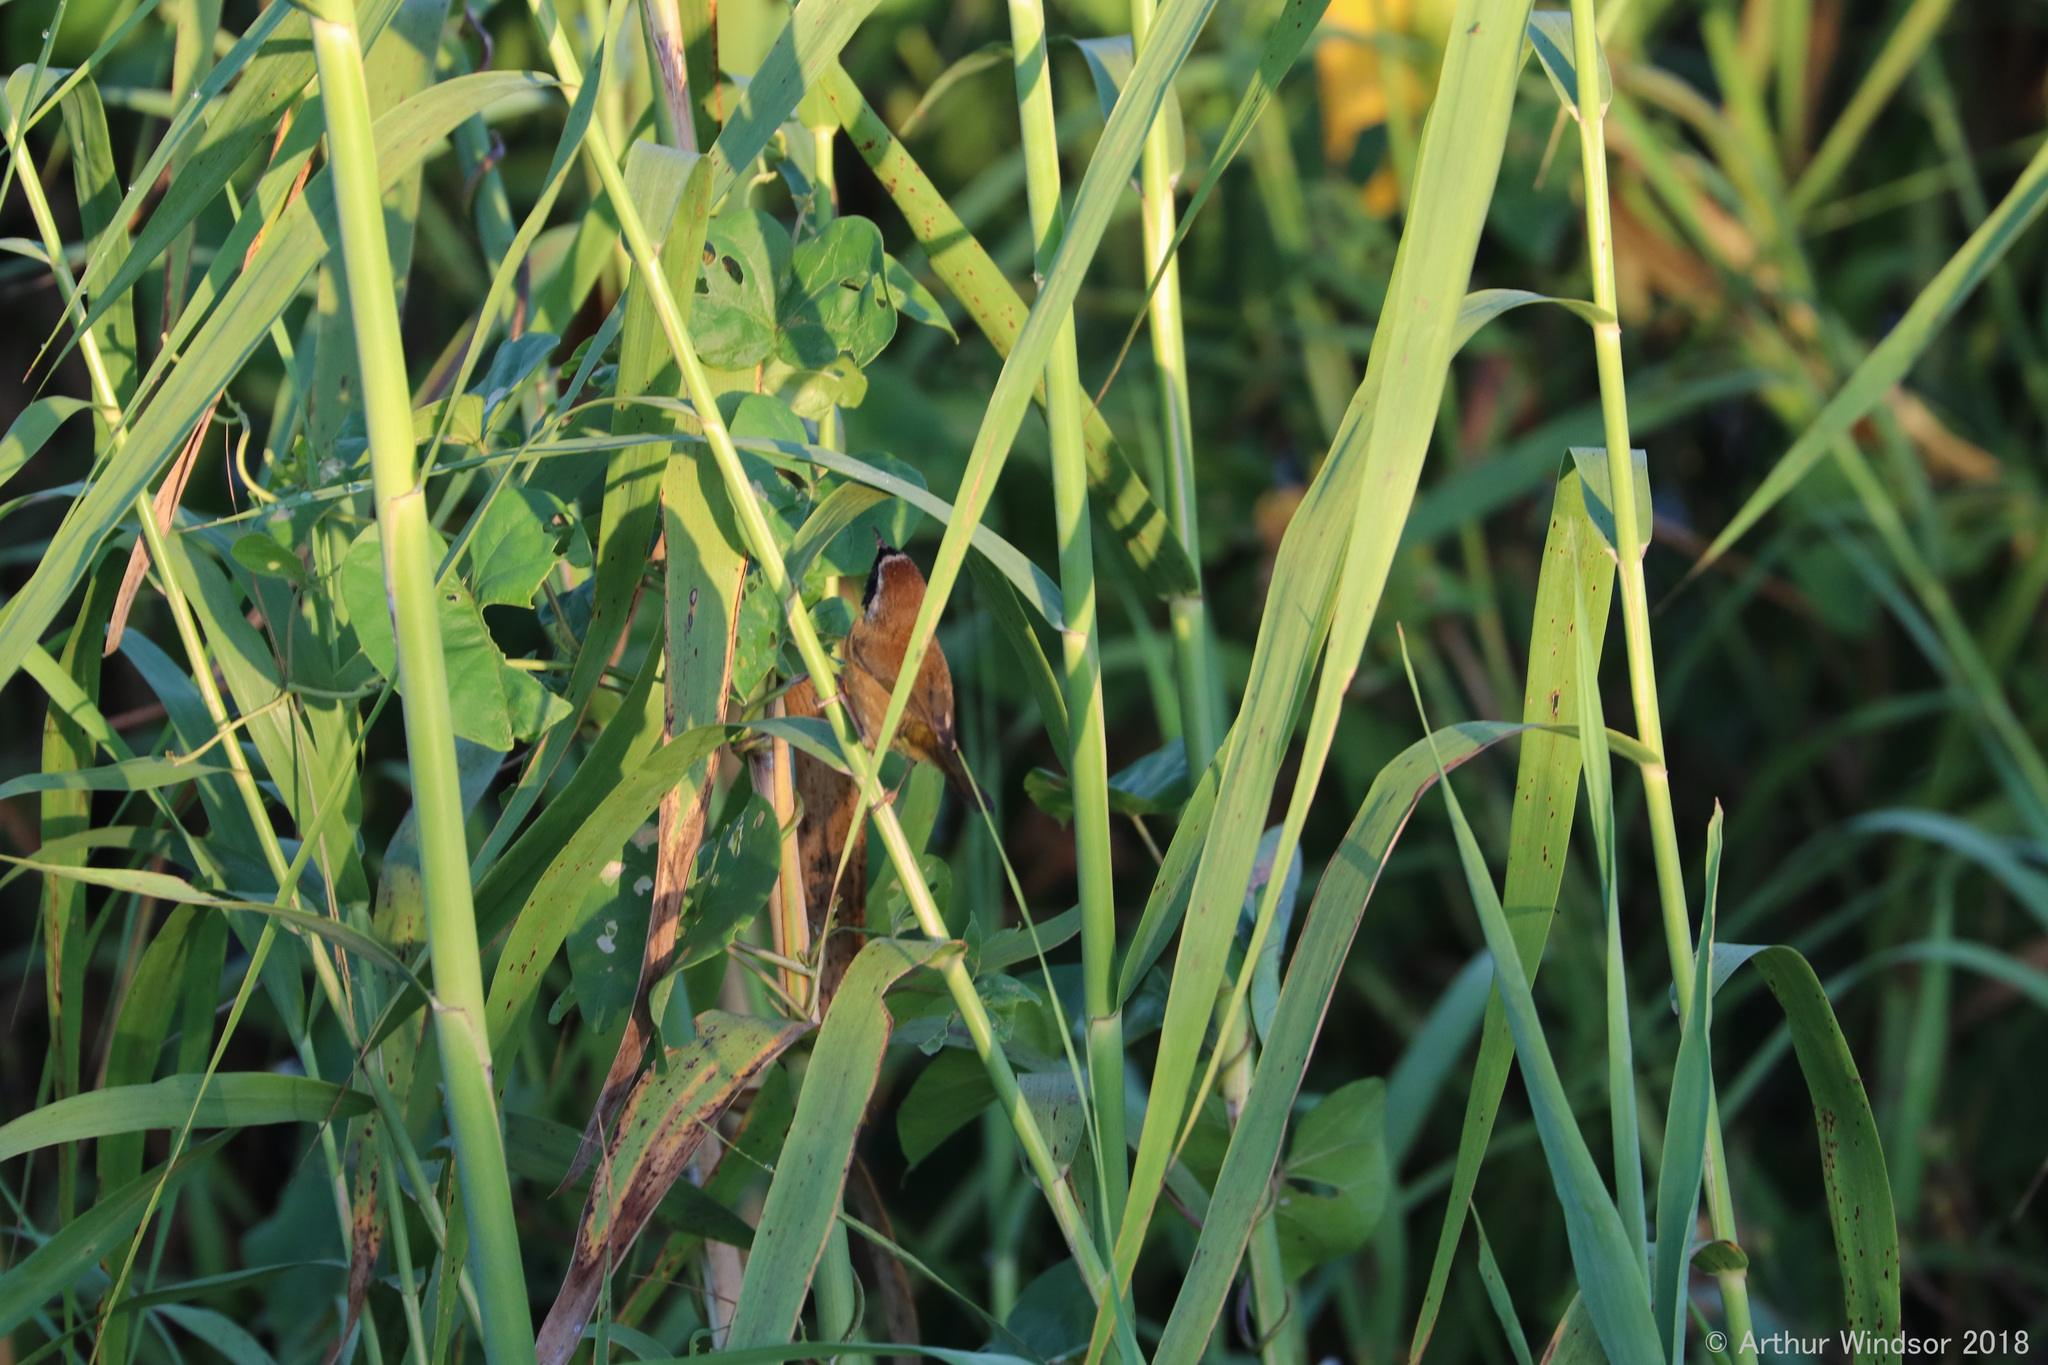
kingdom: Animalia
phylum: Chordata
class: Aves
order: Passeriformes
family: Parulidae
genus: Geothlypis
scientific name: Geothlypis trichas
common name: Common yellowthroat
